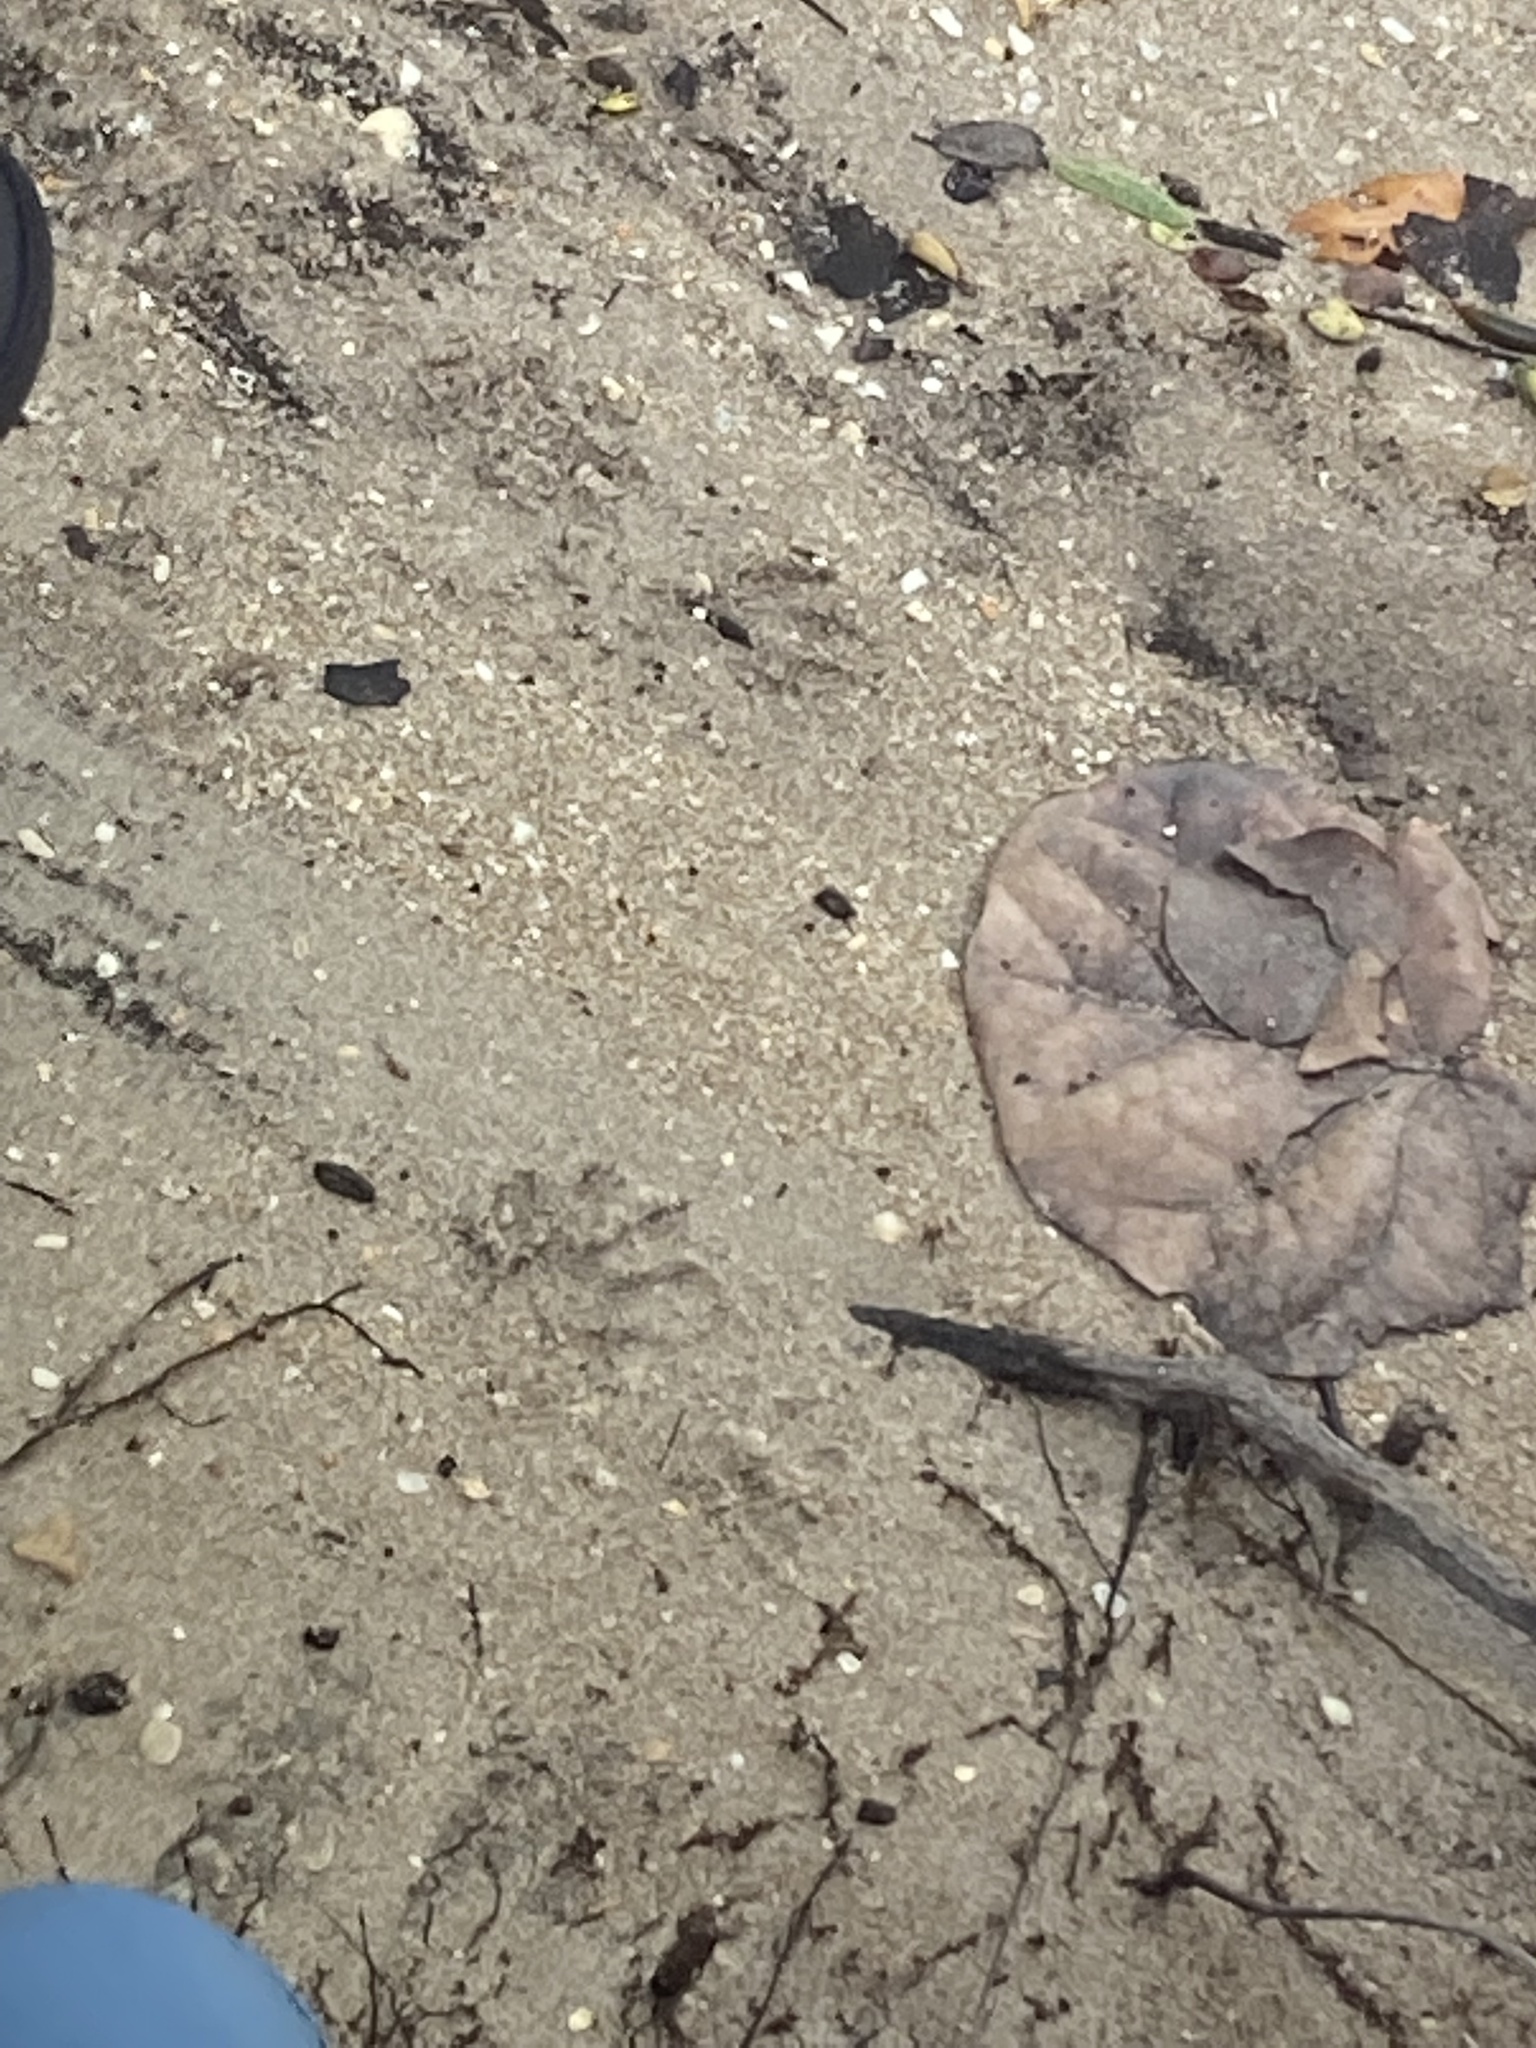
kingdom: Animalia
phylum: Chordata
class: Mammalia
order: Carnivora
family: Procyonidae
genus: Procyon
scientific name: Procyon lotor
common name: Raccoon
